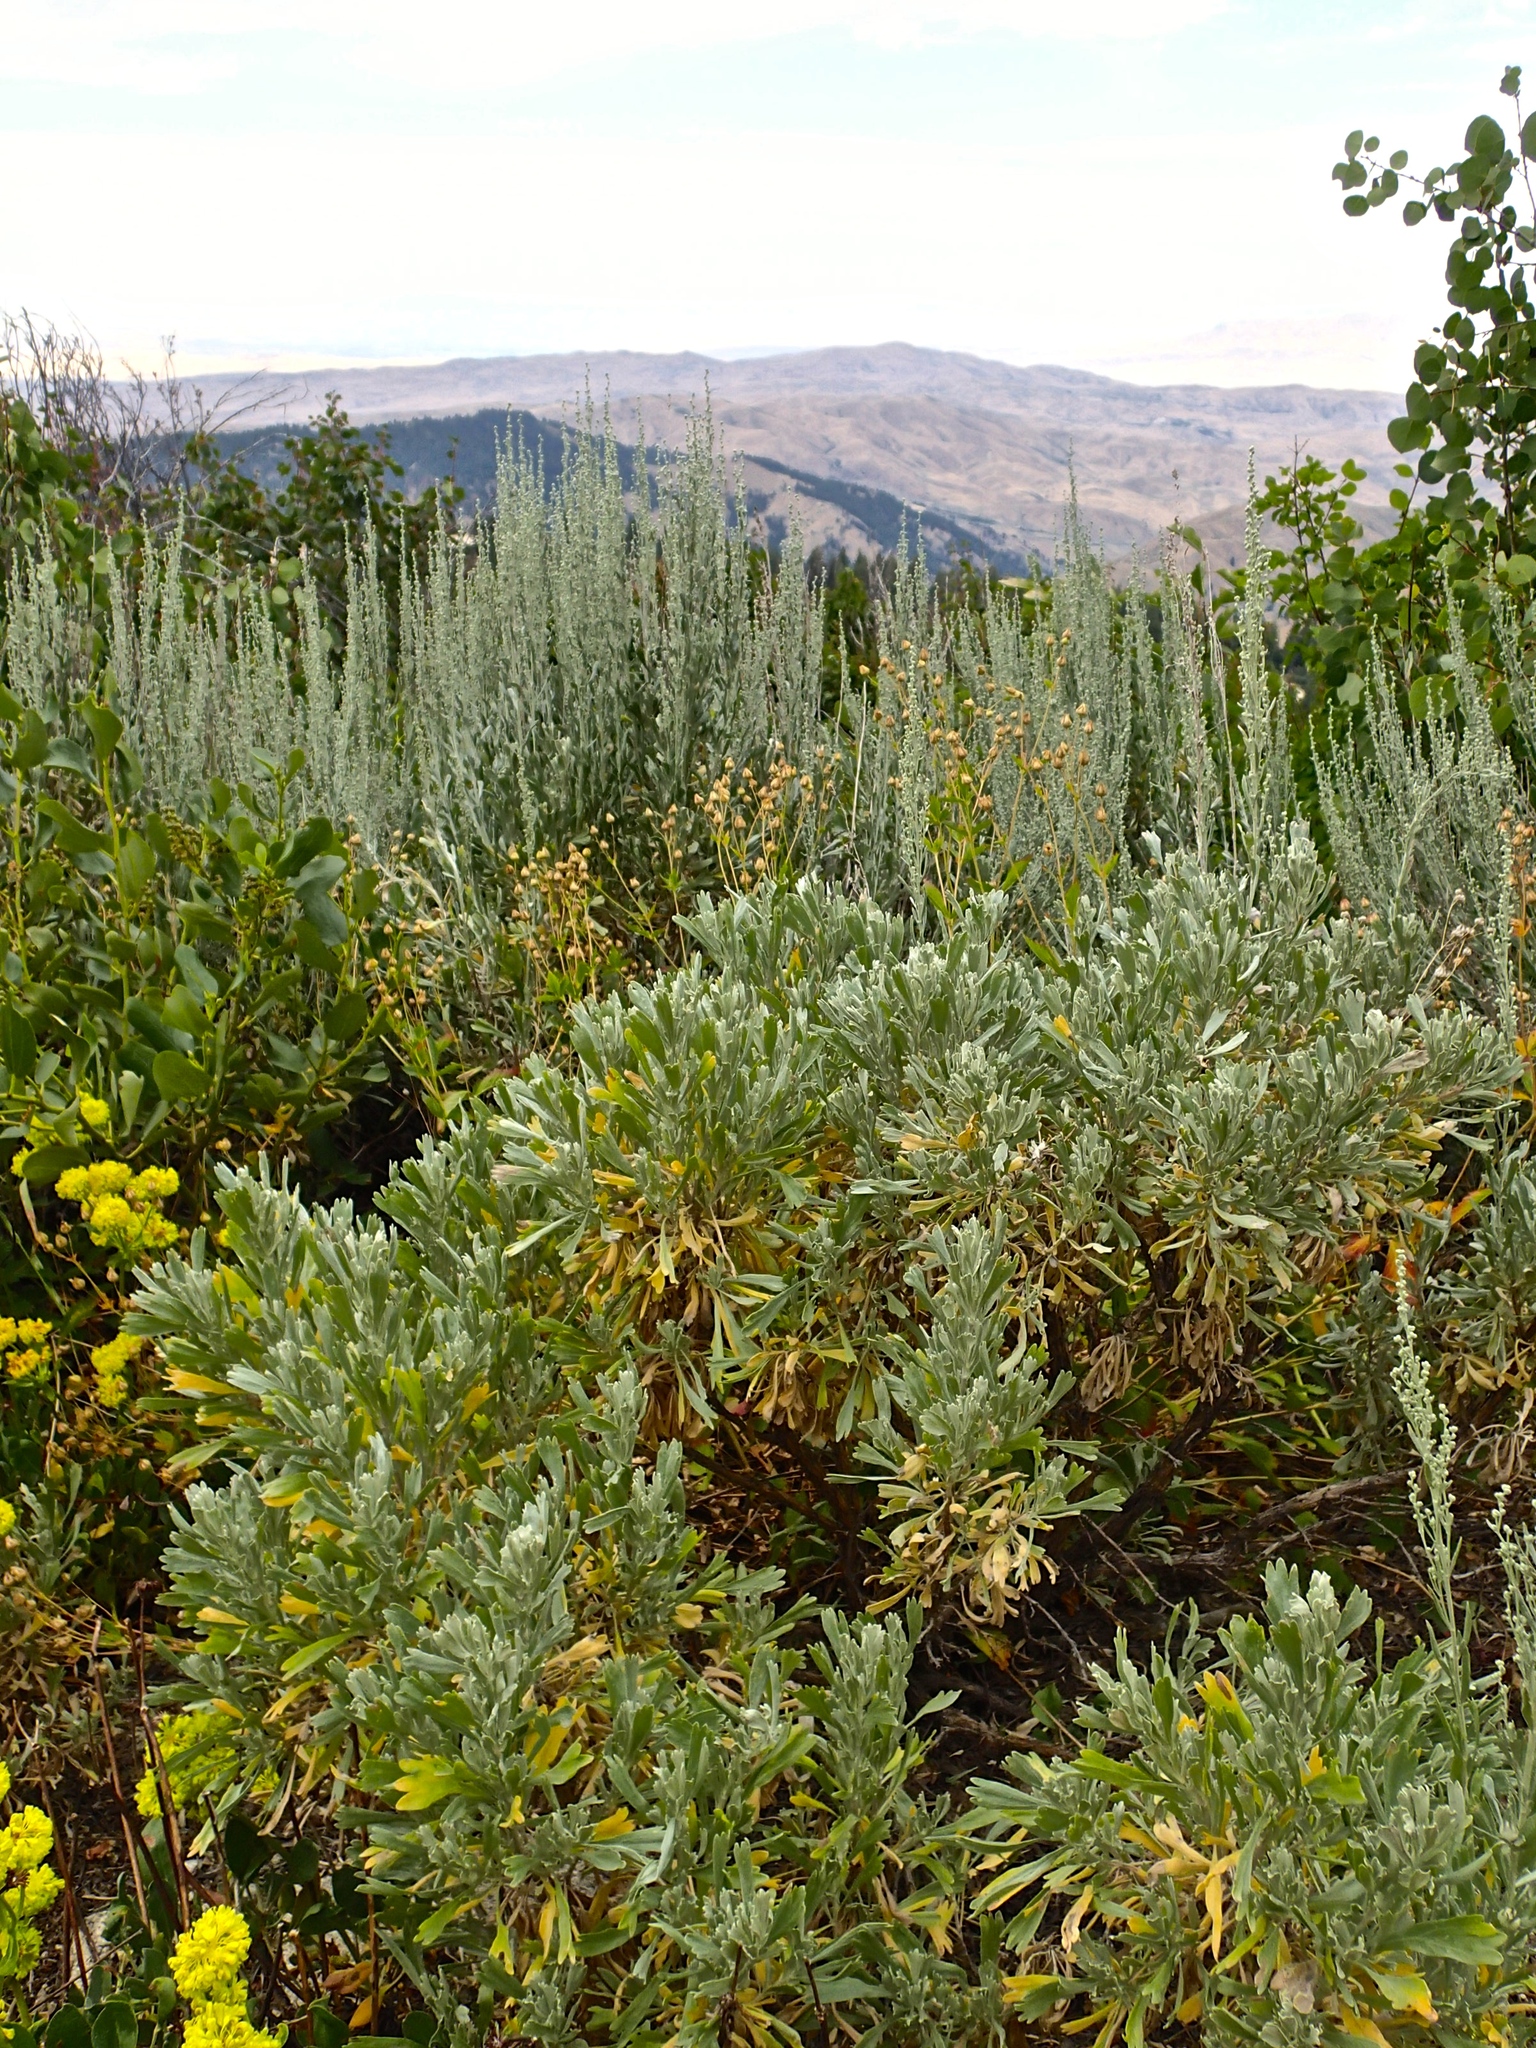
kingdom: Plantae
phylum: Tracheophyta
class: Magnoliopsida
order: Asterales
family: Asteraceae
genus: Artemisia
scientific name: Artemisia tridentata
